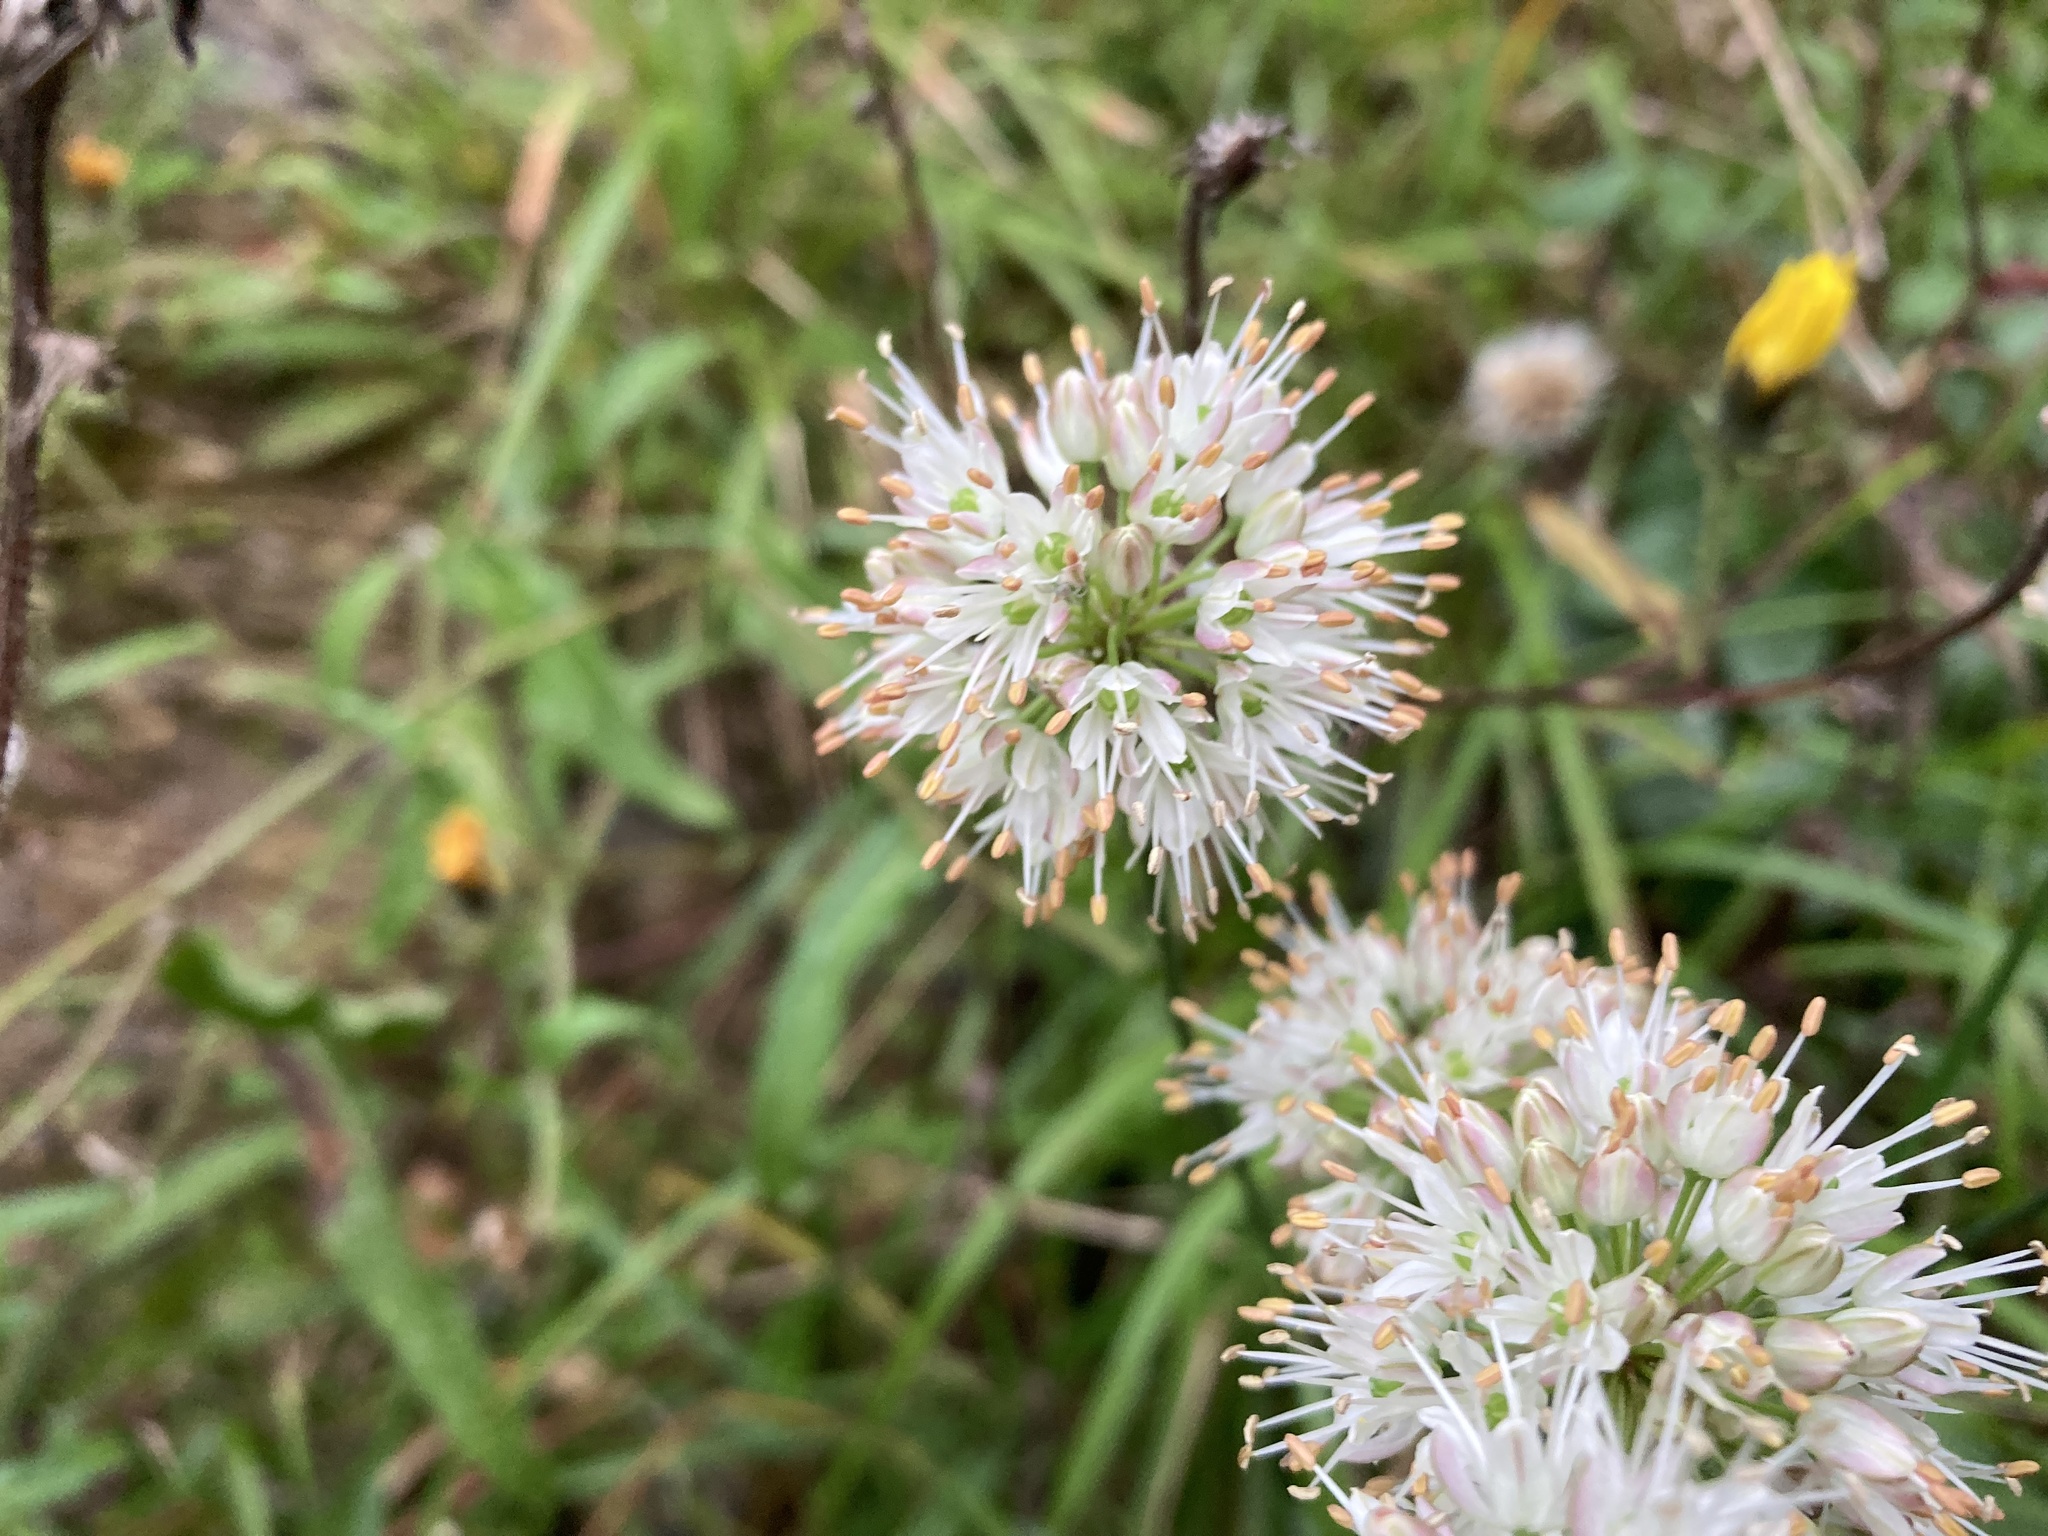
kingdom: Plantae
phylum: Tracheophyta
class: Liliopsida
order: Asparagales
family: Amaryllidaceae
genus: Allium
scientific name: Allium ericetorum
